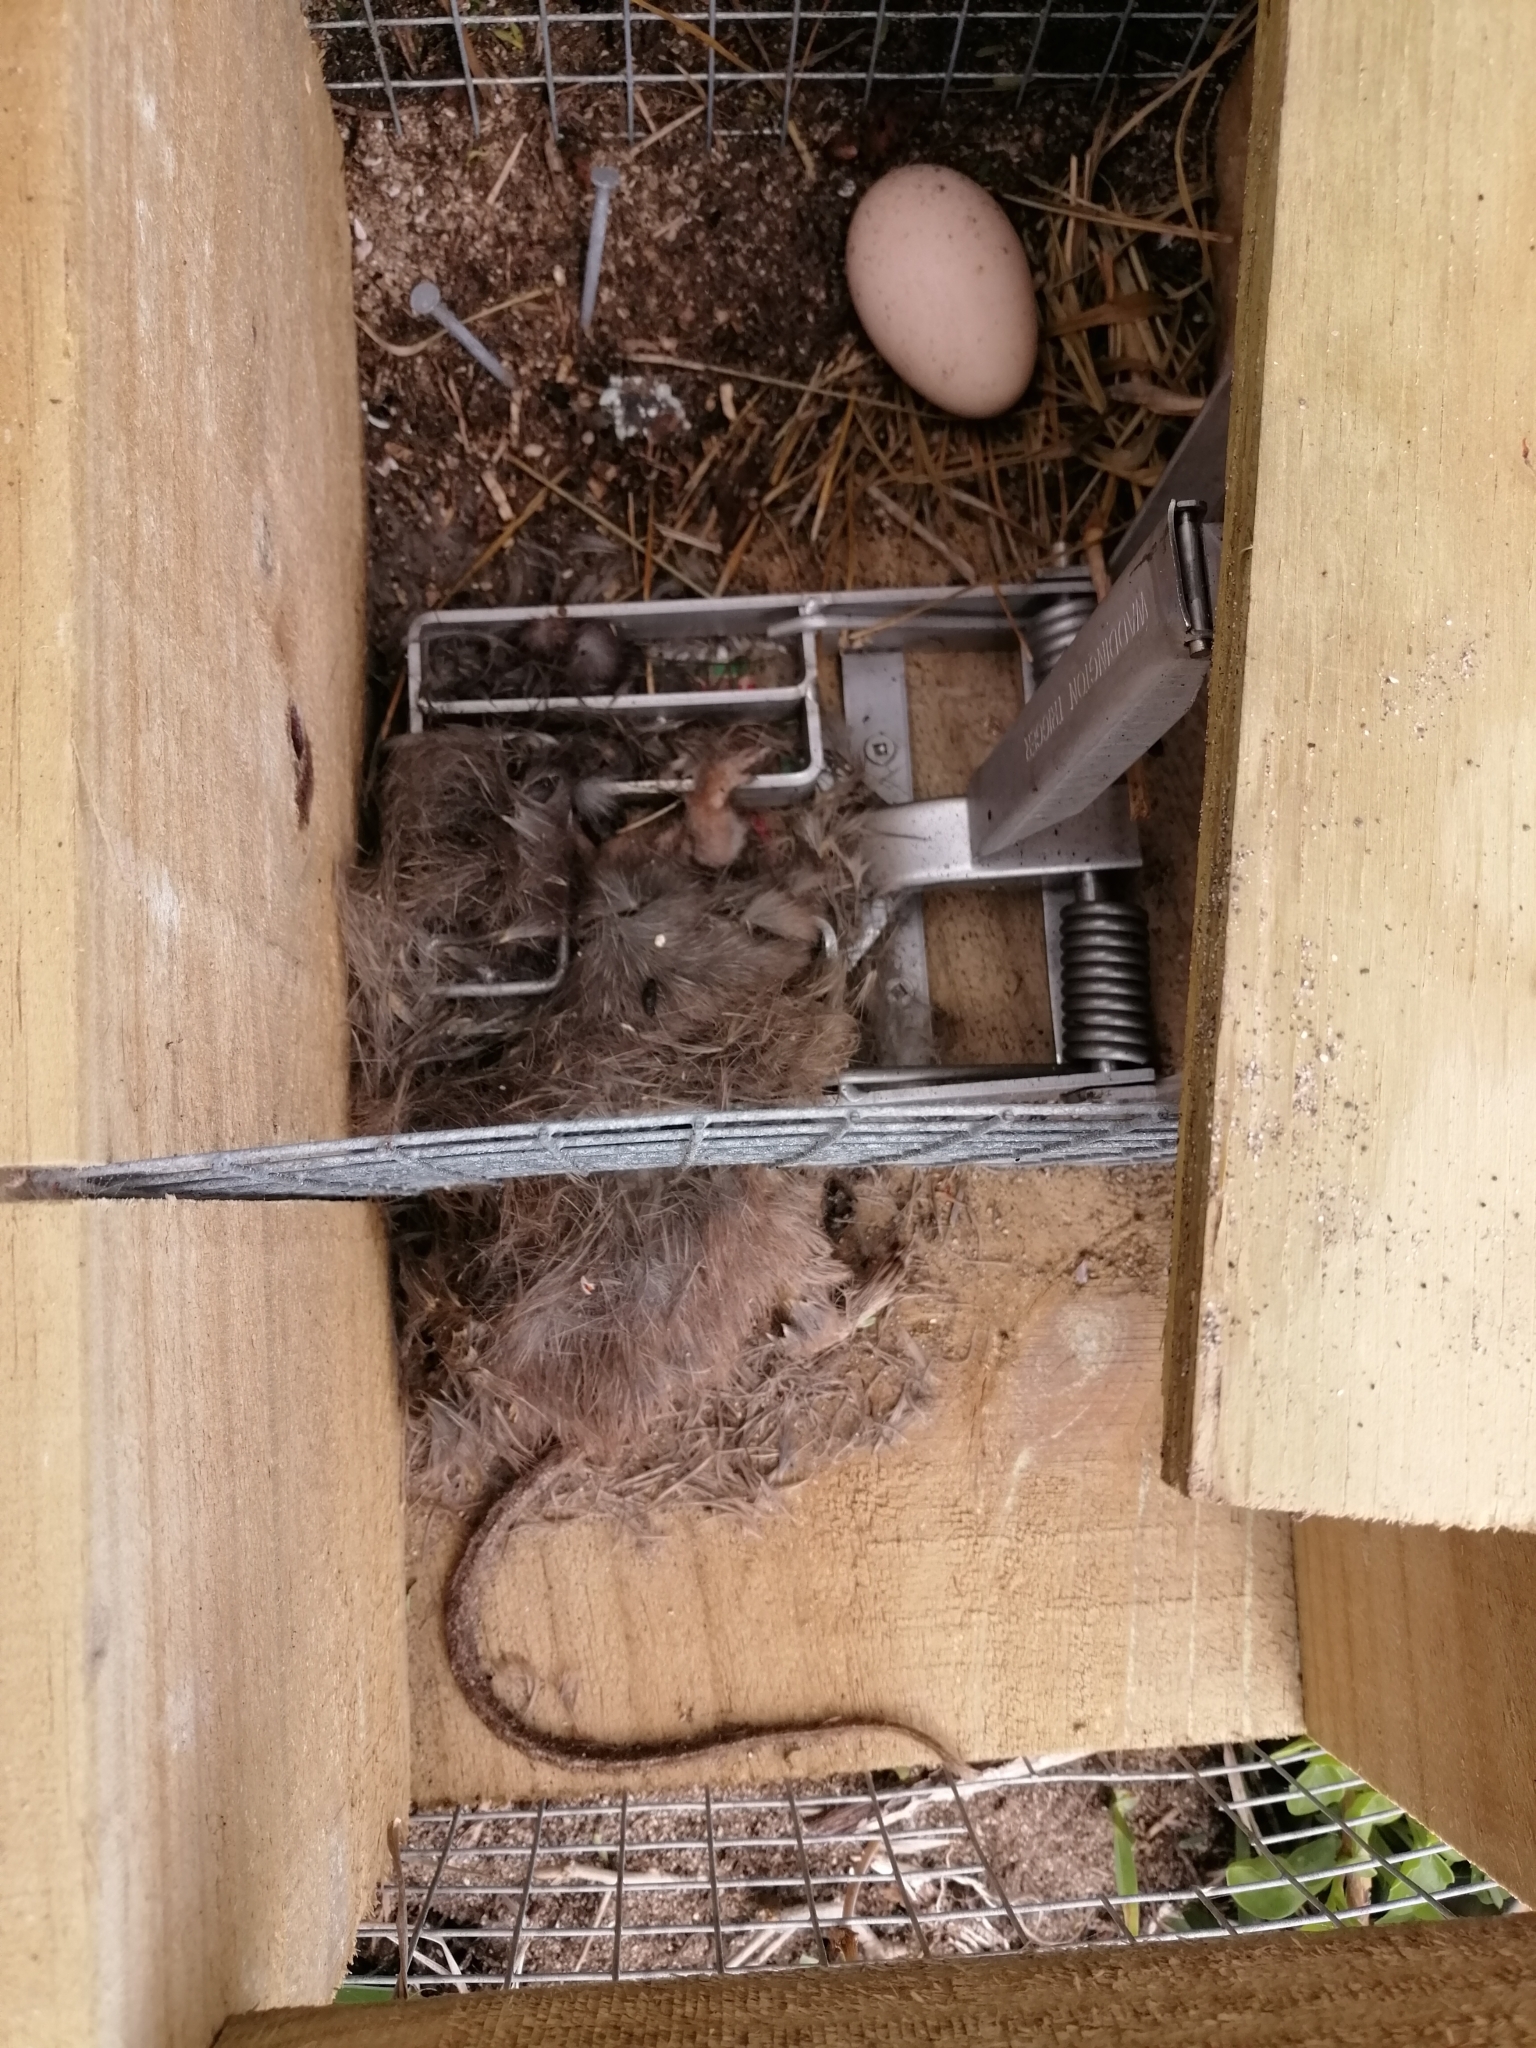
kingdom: Animalia
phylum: Chordata
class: Mammalia
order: Rodentia
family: Muridae
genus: Rattus
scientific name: Rattus rattus
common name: Black rat
